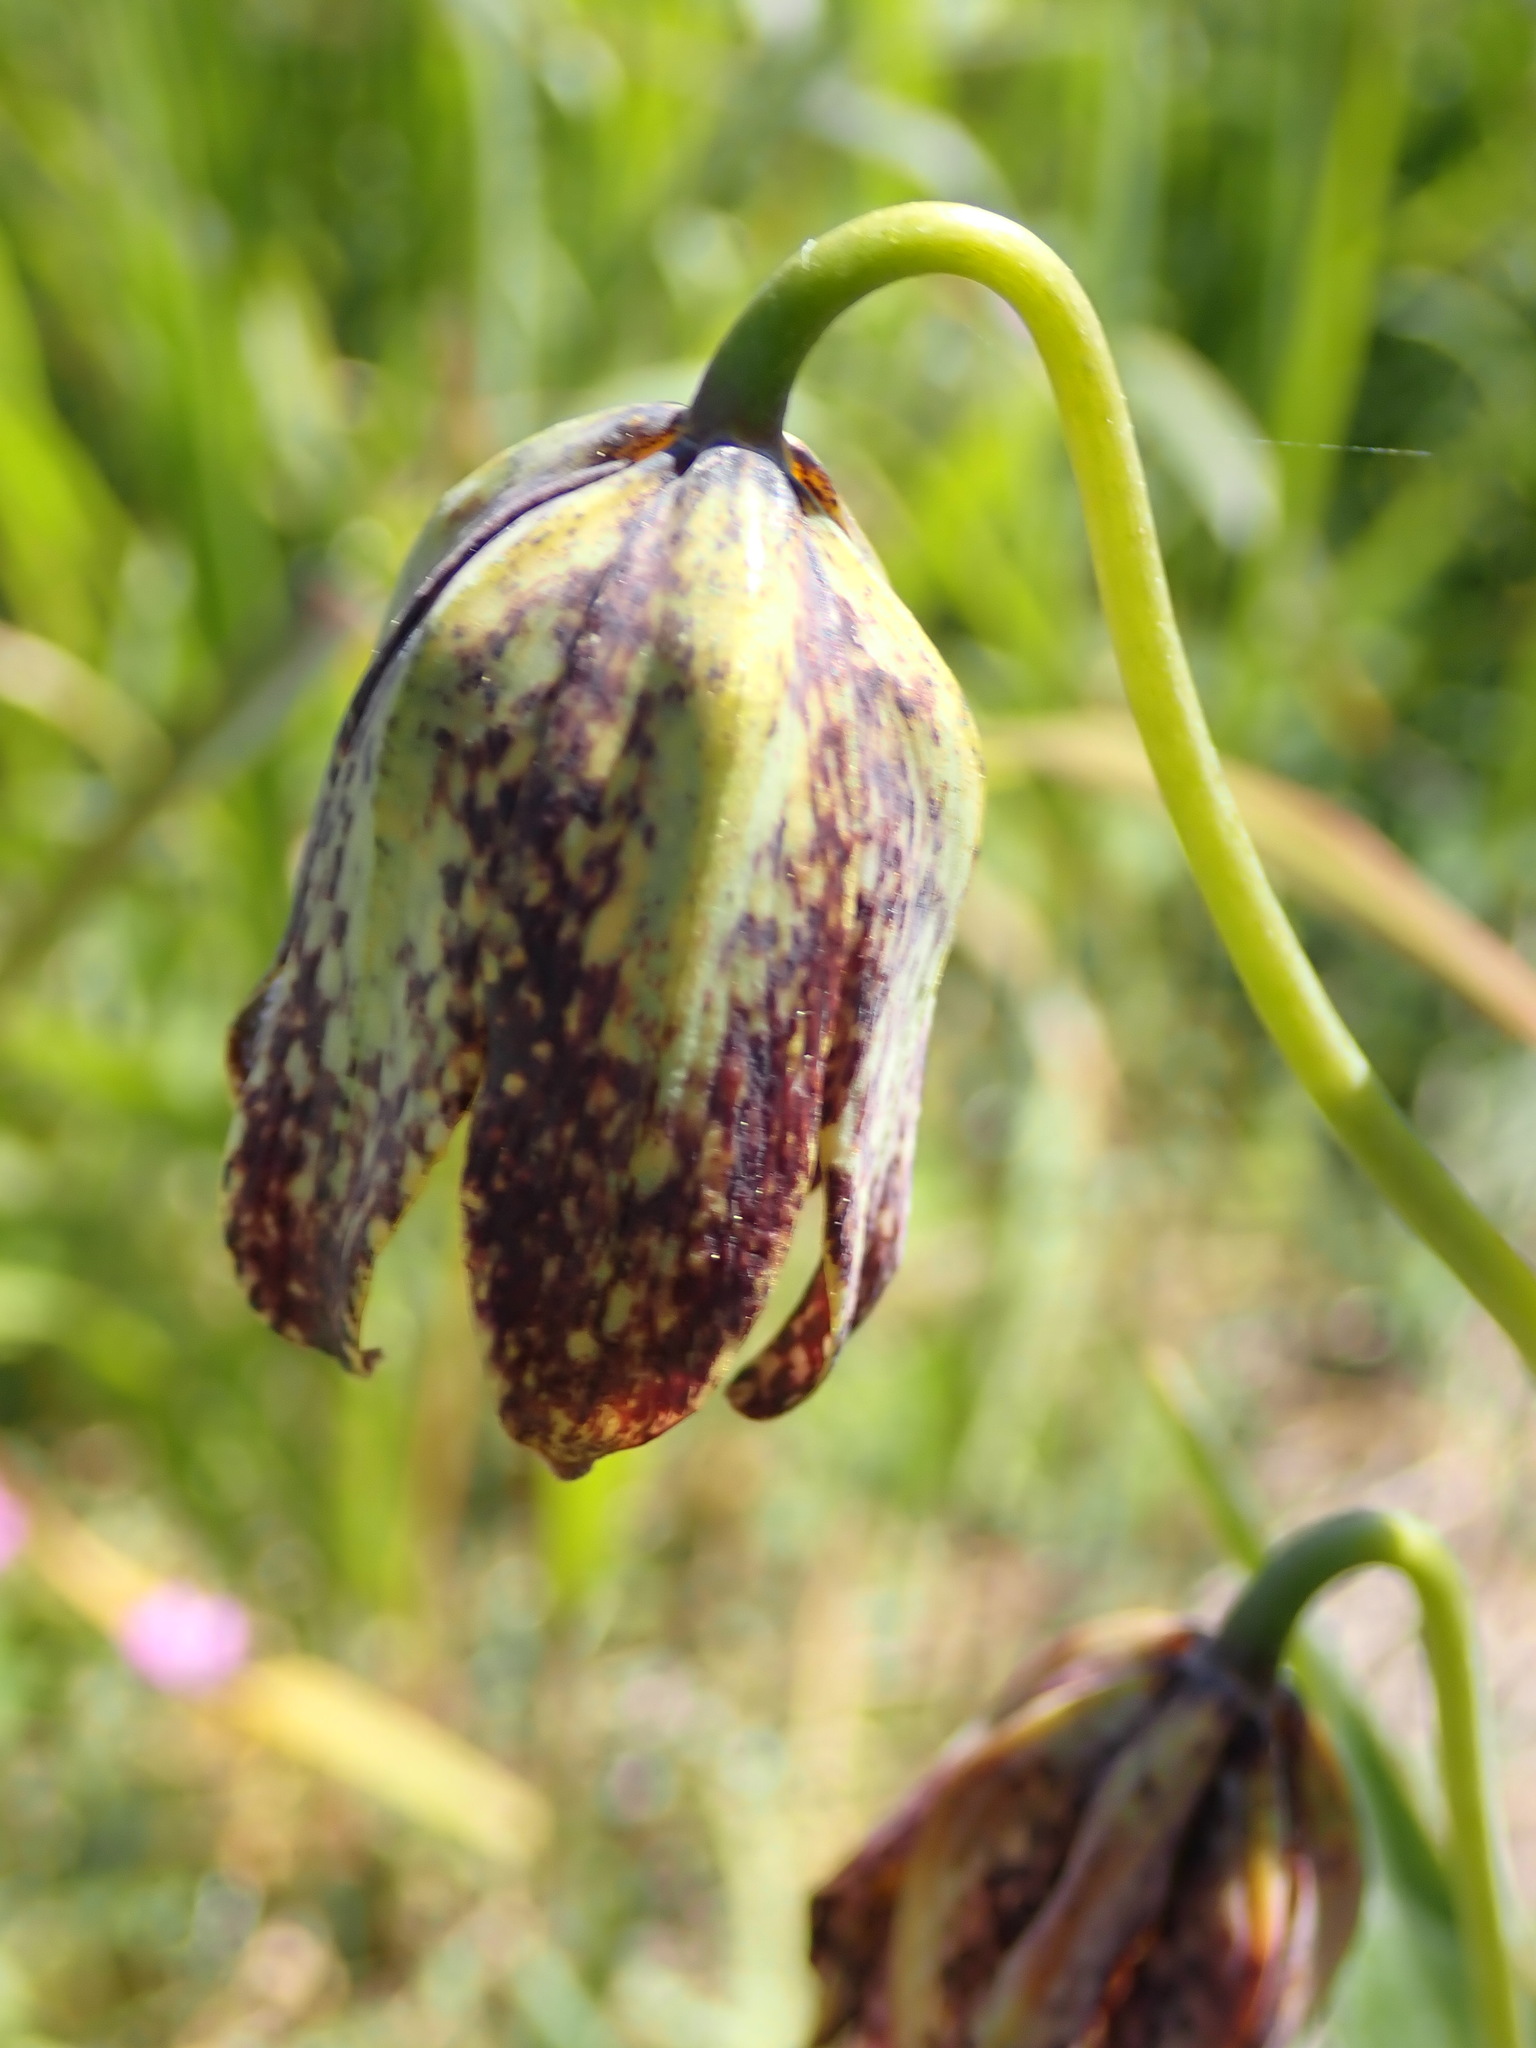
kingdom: Plantae
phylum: Tracheophyta
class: Liliopsida
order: Liliales
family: Liliaceae
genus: Fritillaria
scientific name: Fritillaria affinis
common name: Ojai fritillary
